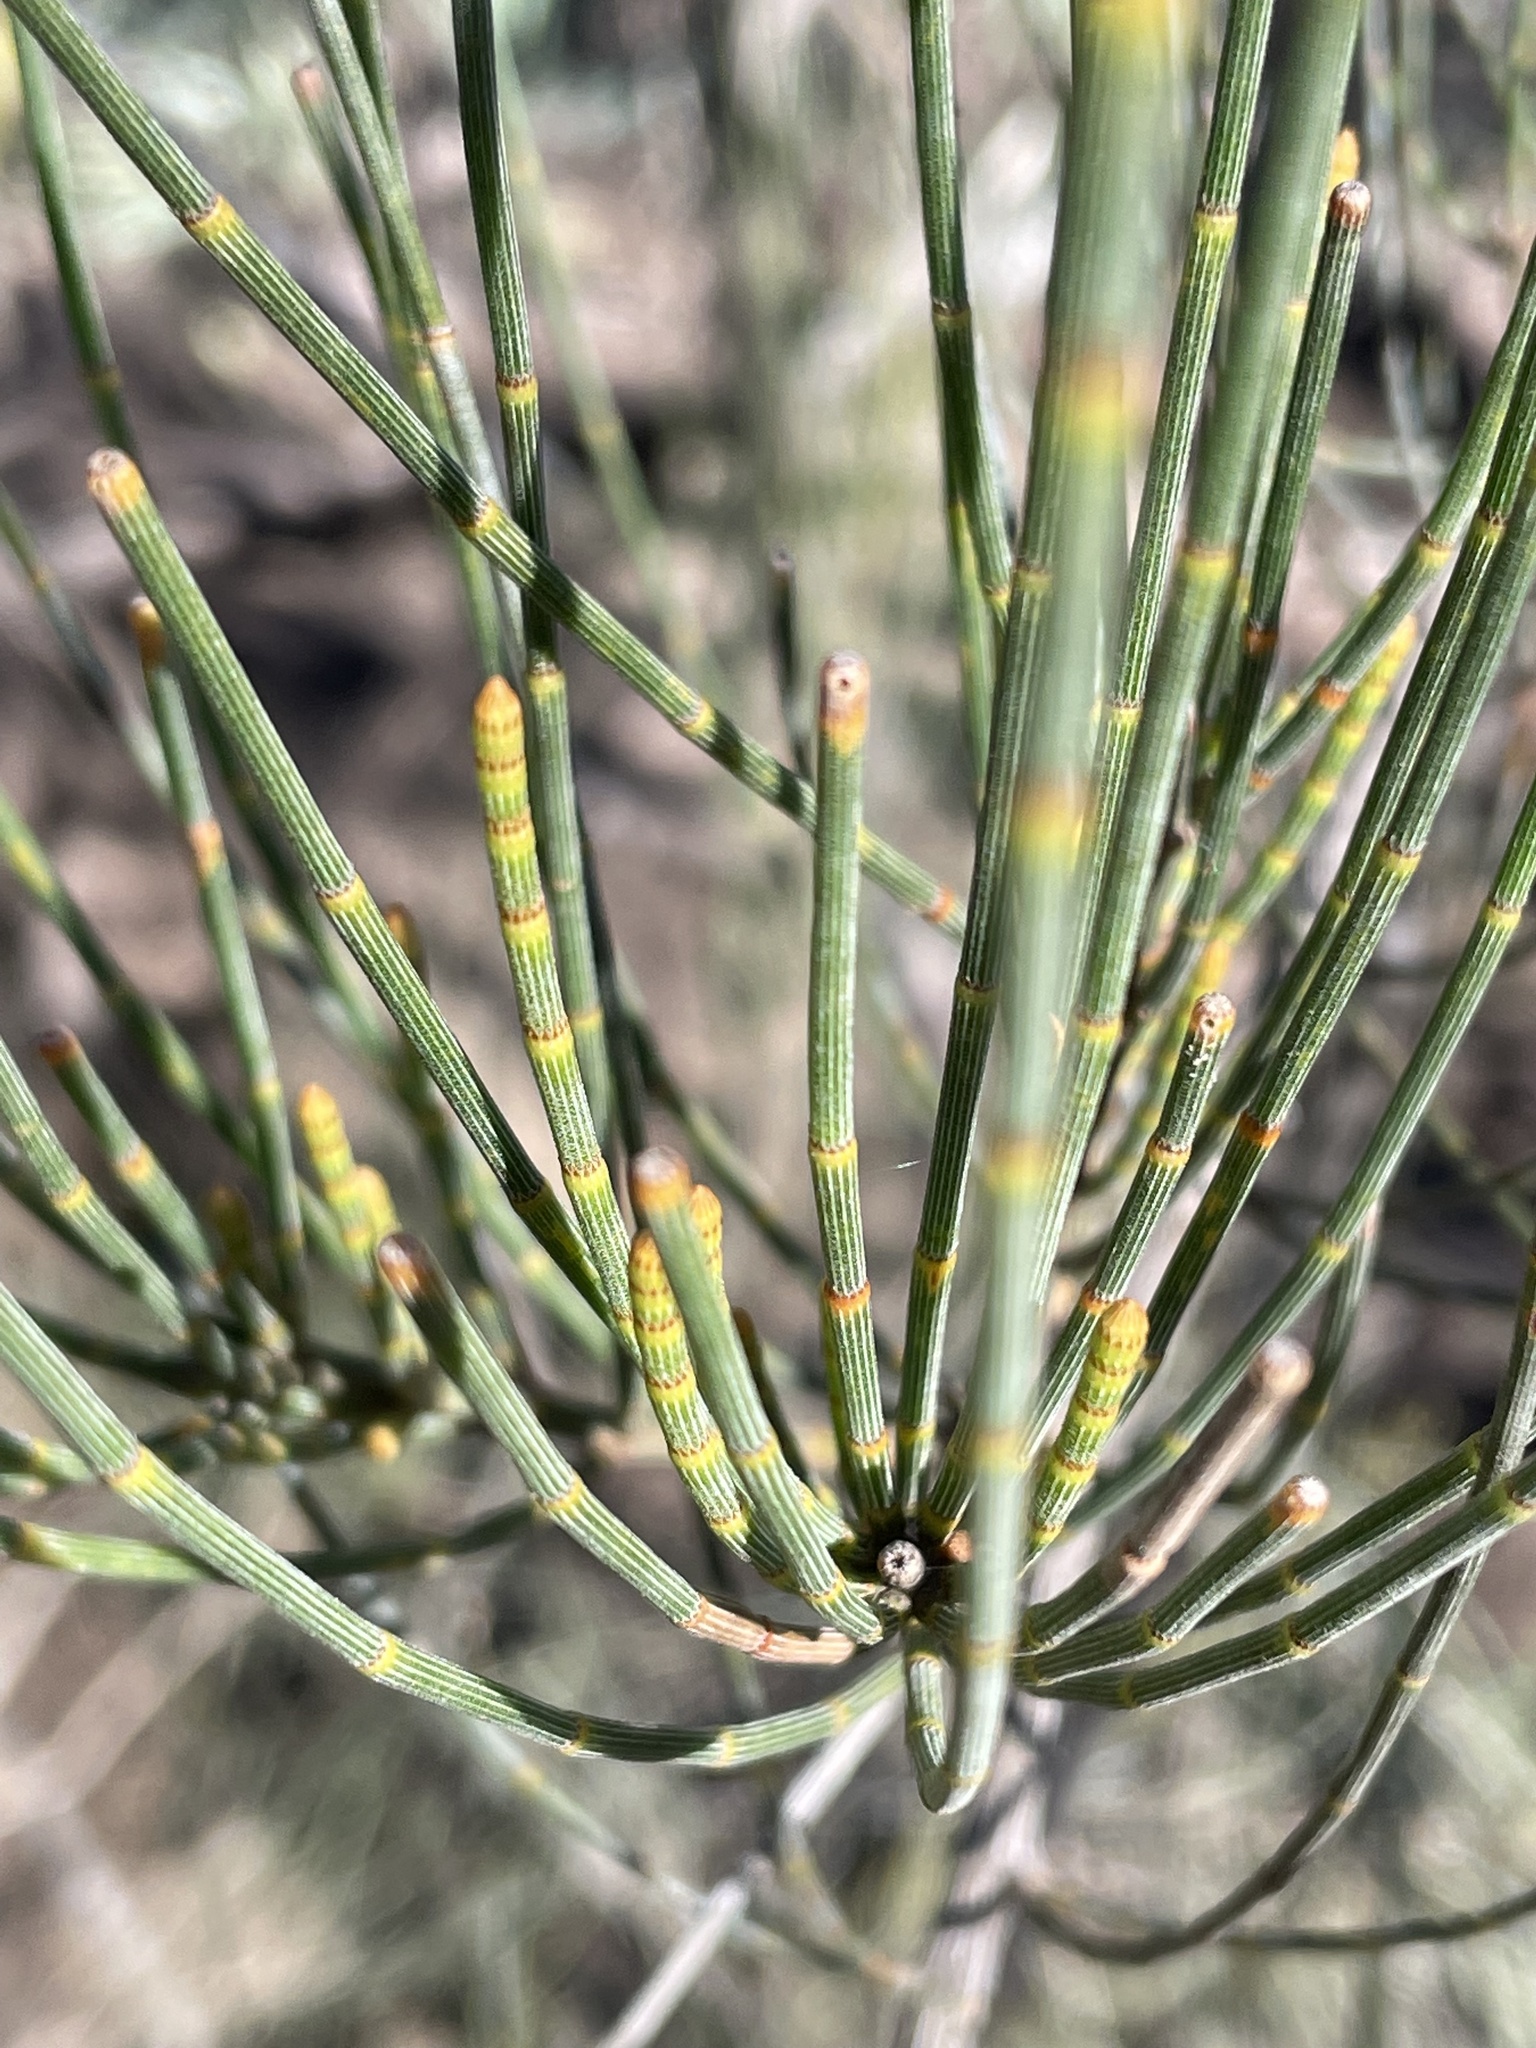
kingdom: Plantae
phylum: Tracheophyta
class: Magnoliopsida
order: Fagales
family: Casuarinaceae
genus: Allocasuarina
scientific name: Allocasuarina luehmannii
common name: Bull-oak
